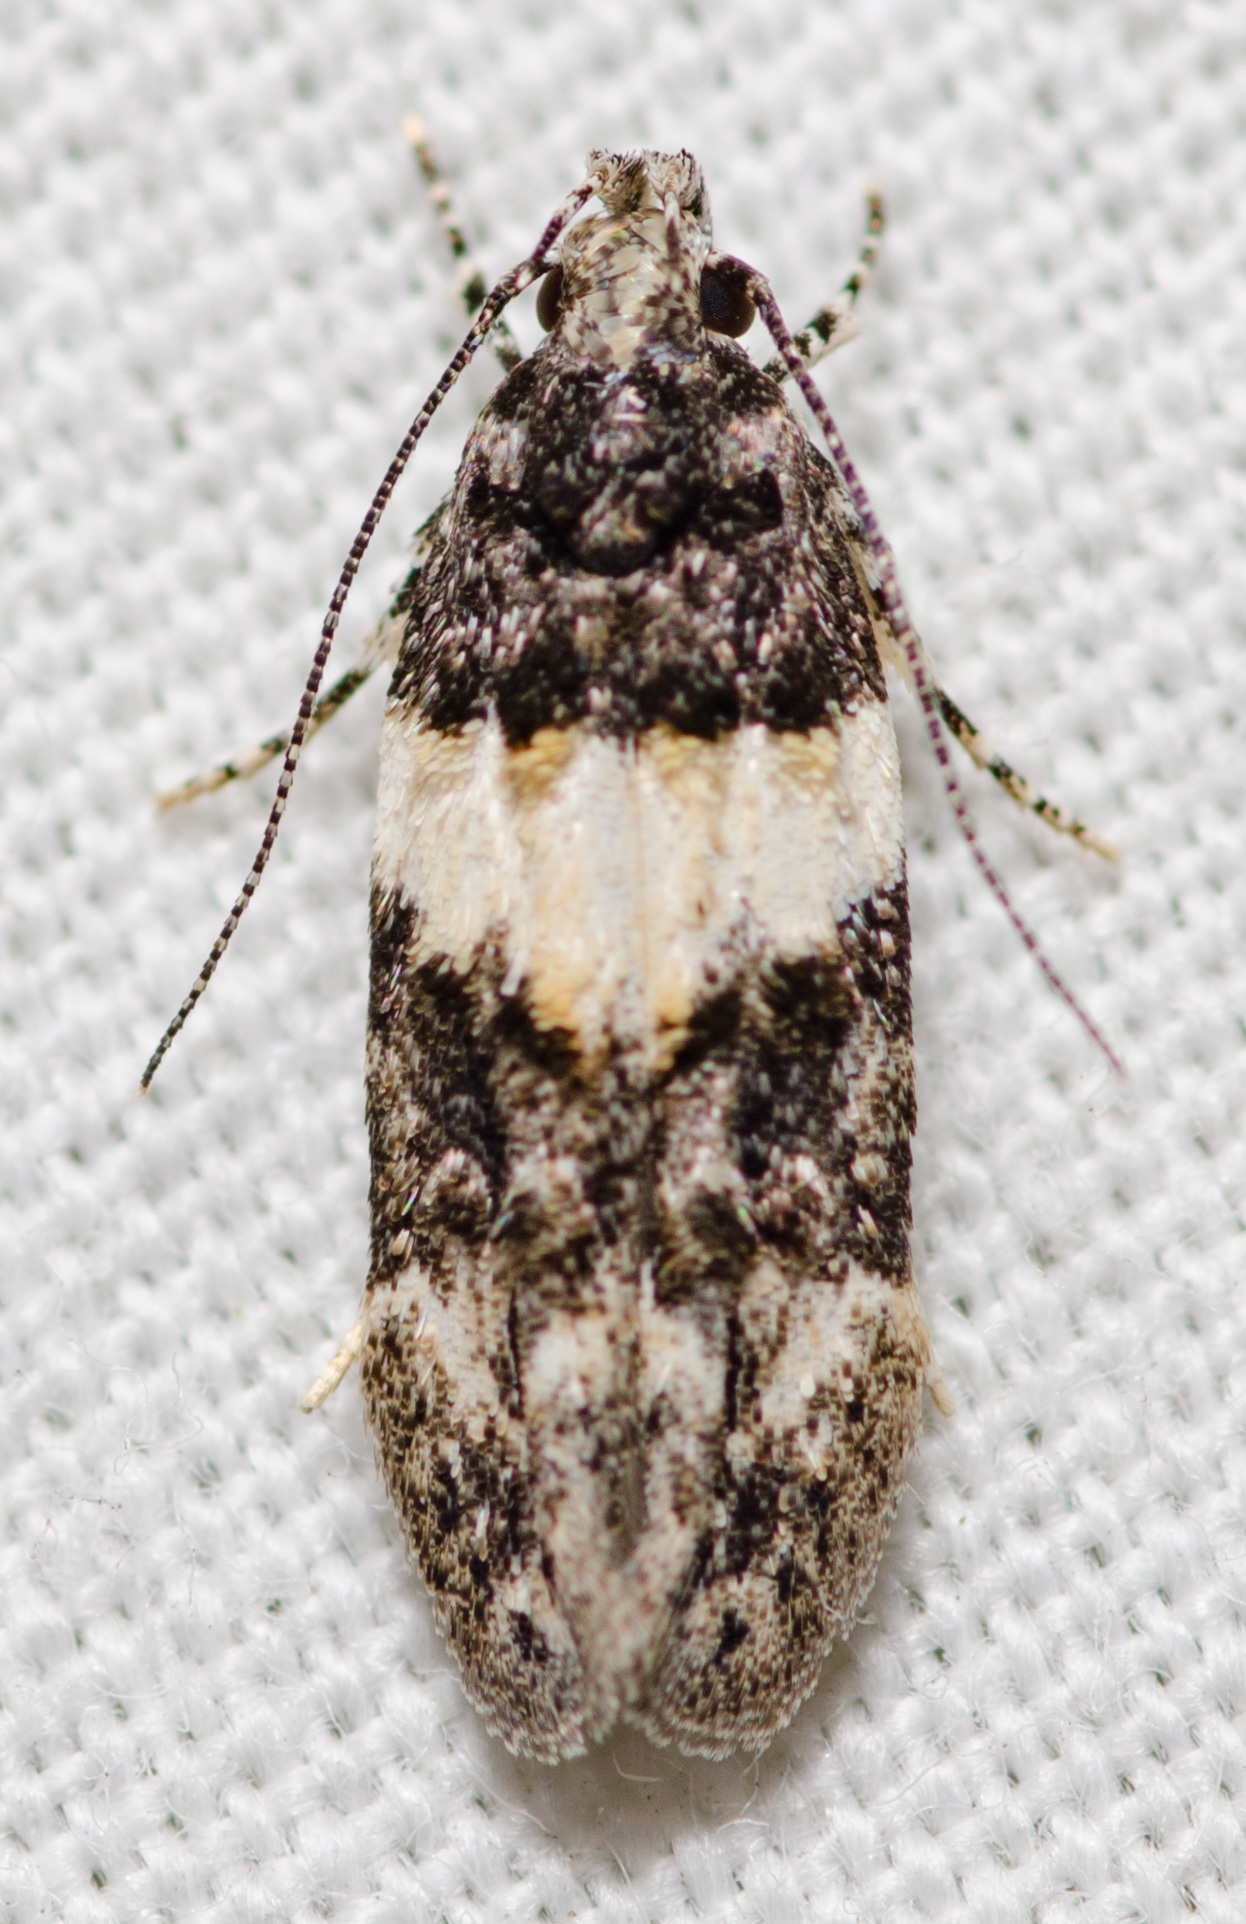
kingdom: Animalia
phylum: Arthropoda
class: Insecta
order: Lepidoptera
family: Gelechiidae
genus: Pubitelphusa
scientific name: Pubitelphusa latifasciella
